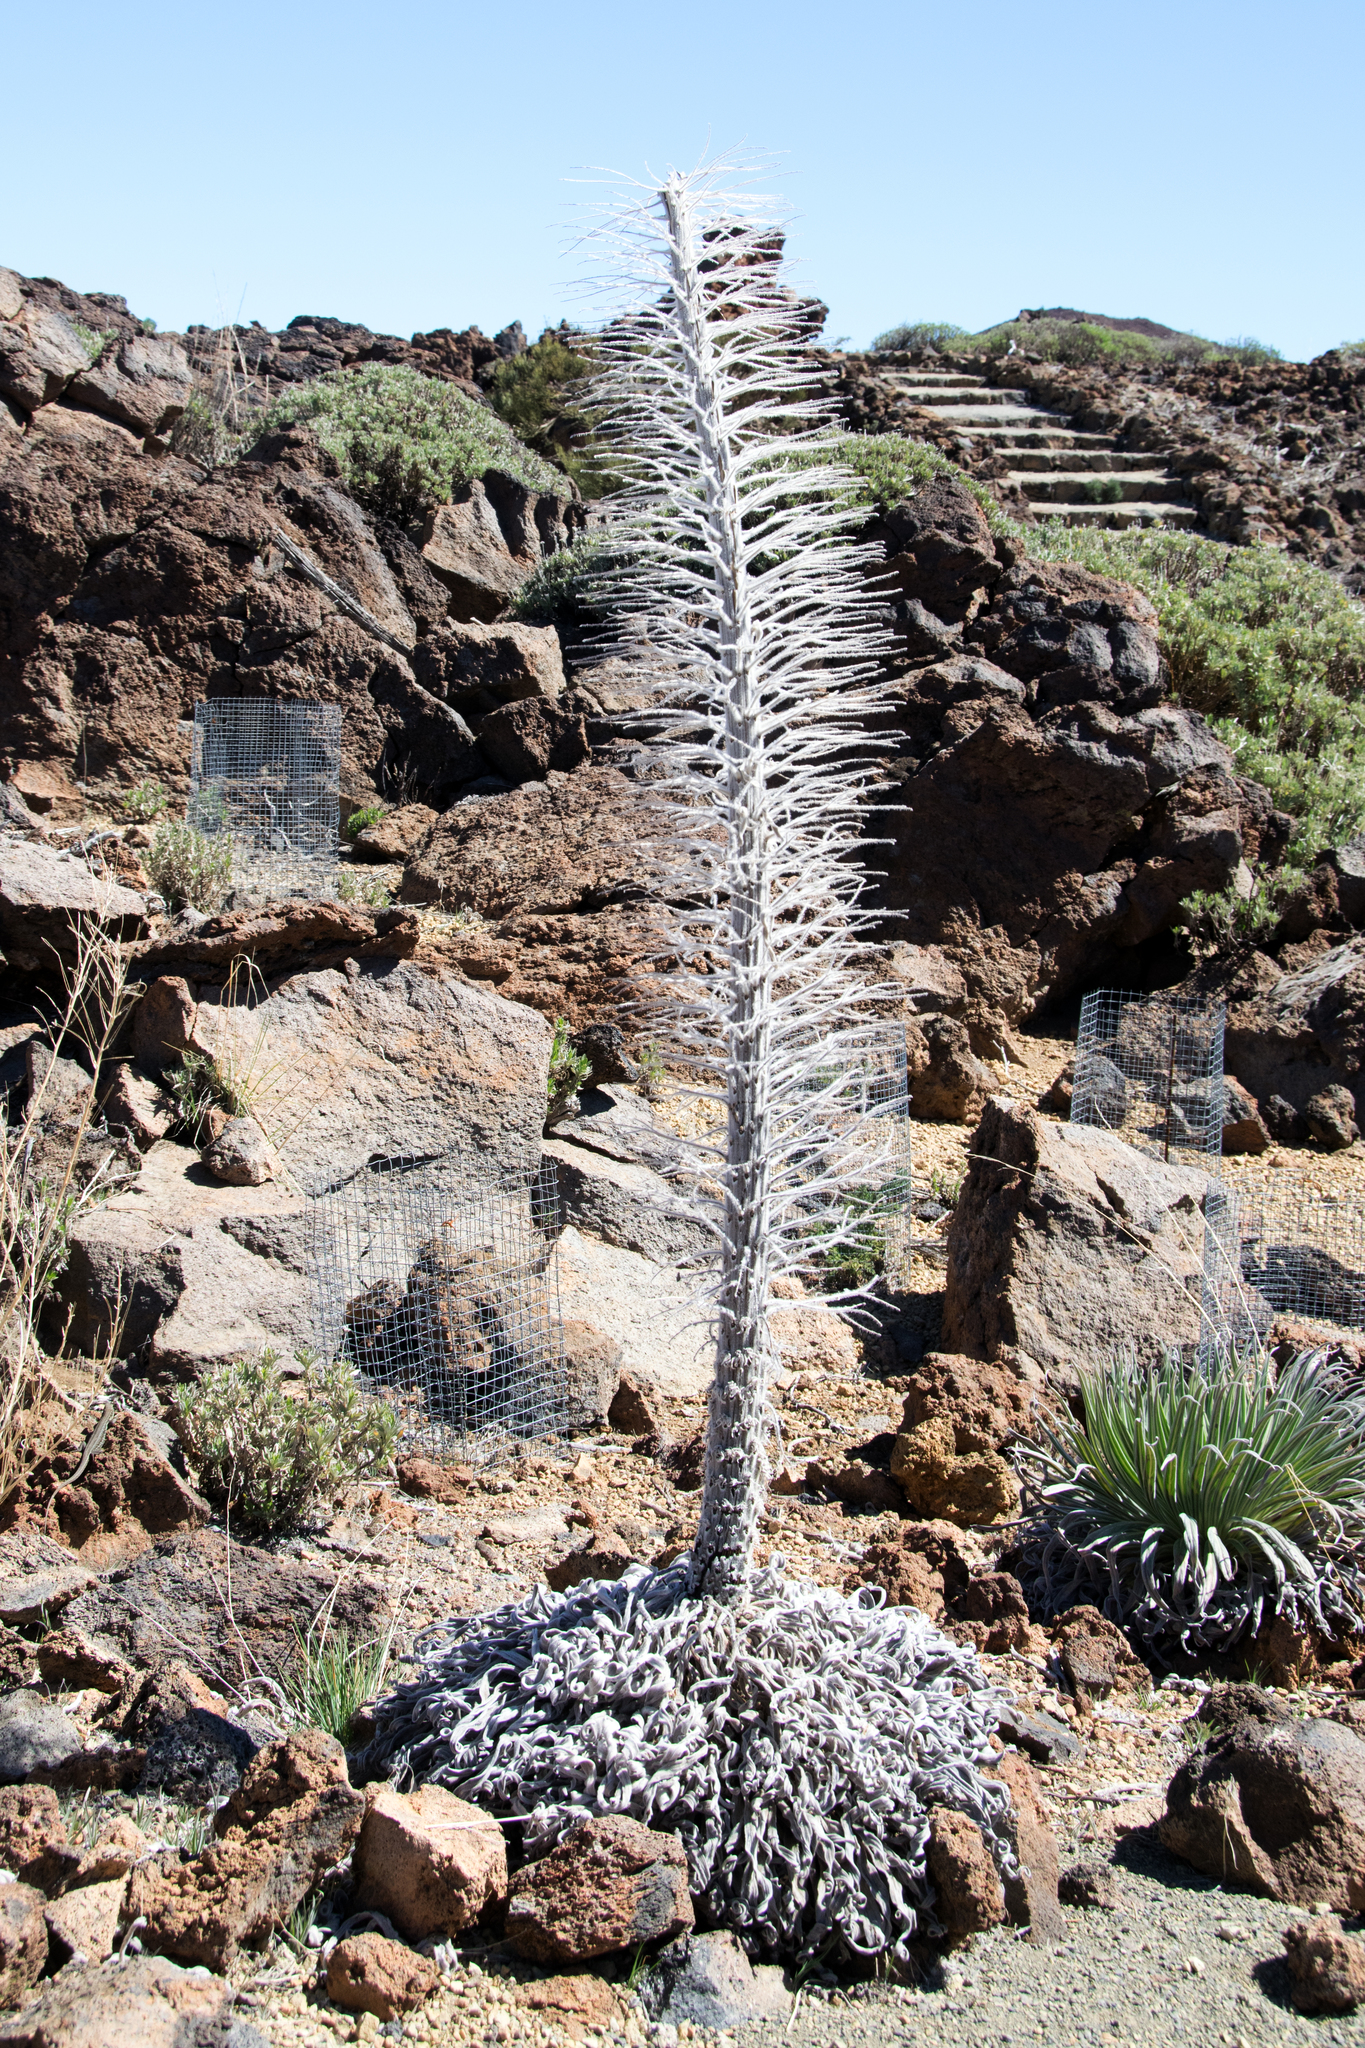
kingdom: Plantae
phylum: Tracheophyta
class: Magnoliopsida
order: Boraginales
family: Boraginaceae
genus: Echium
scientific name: Echium wildpretii
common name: Tower-of-jewels
